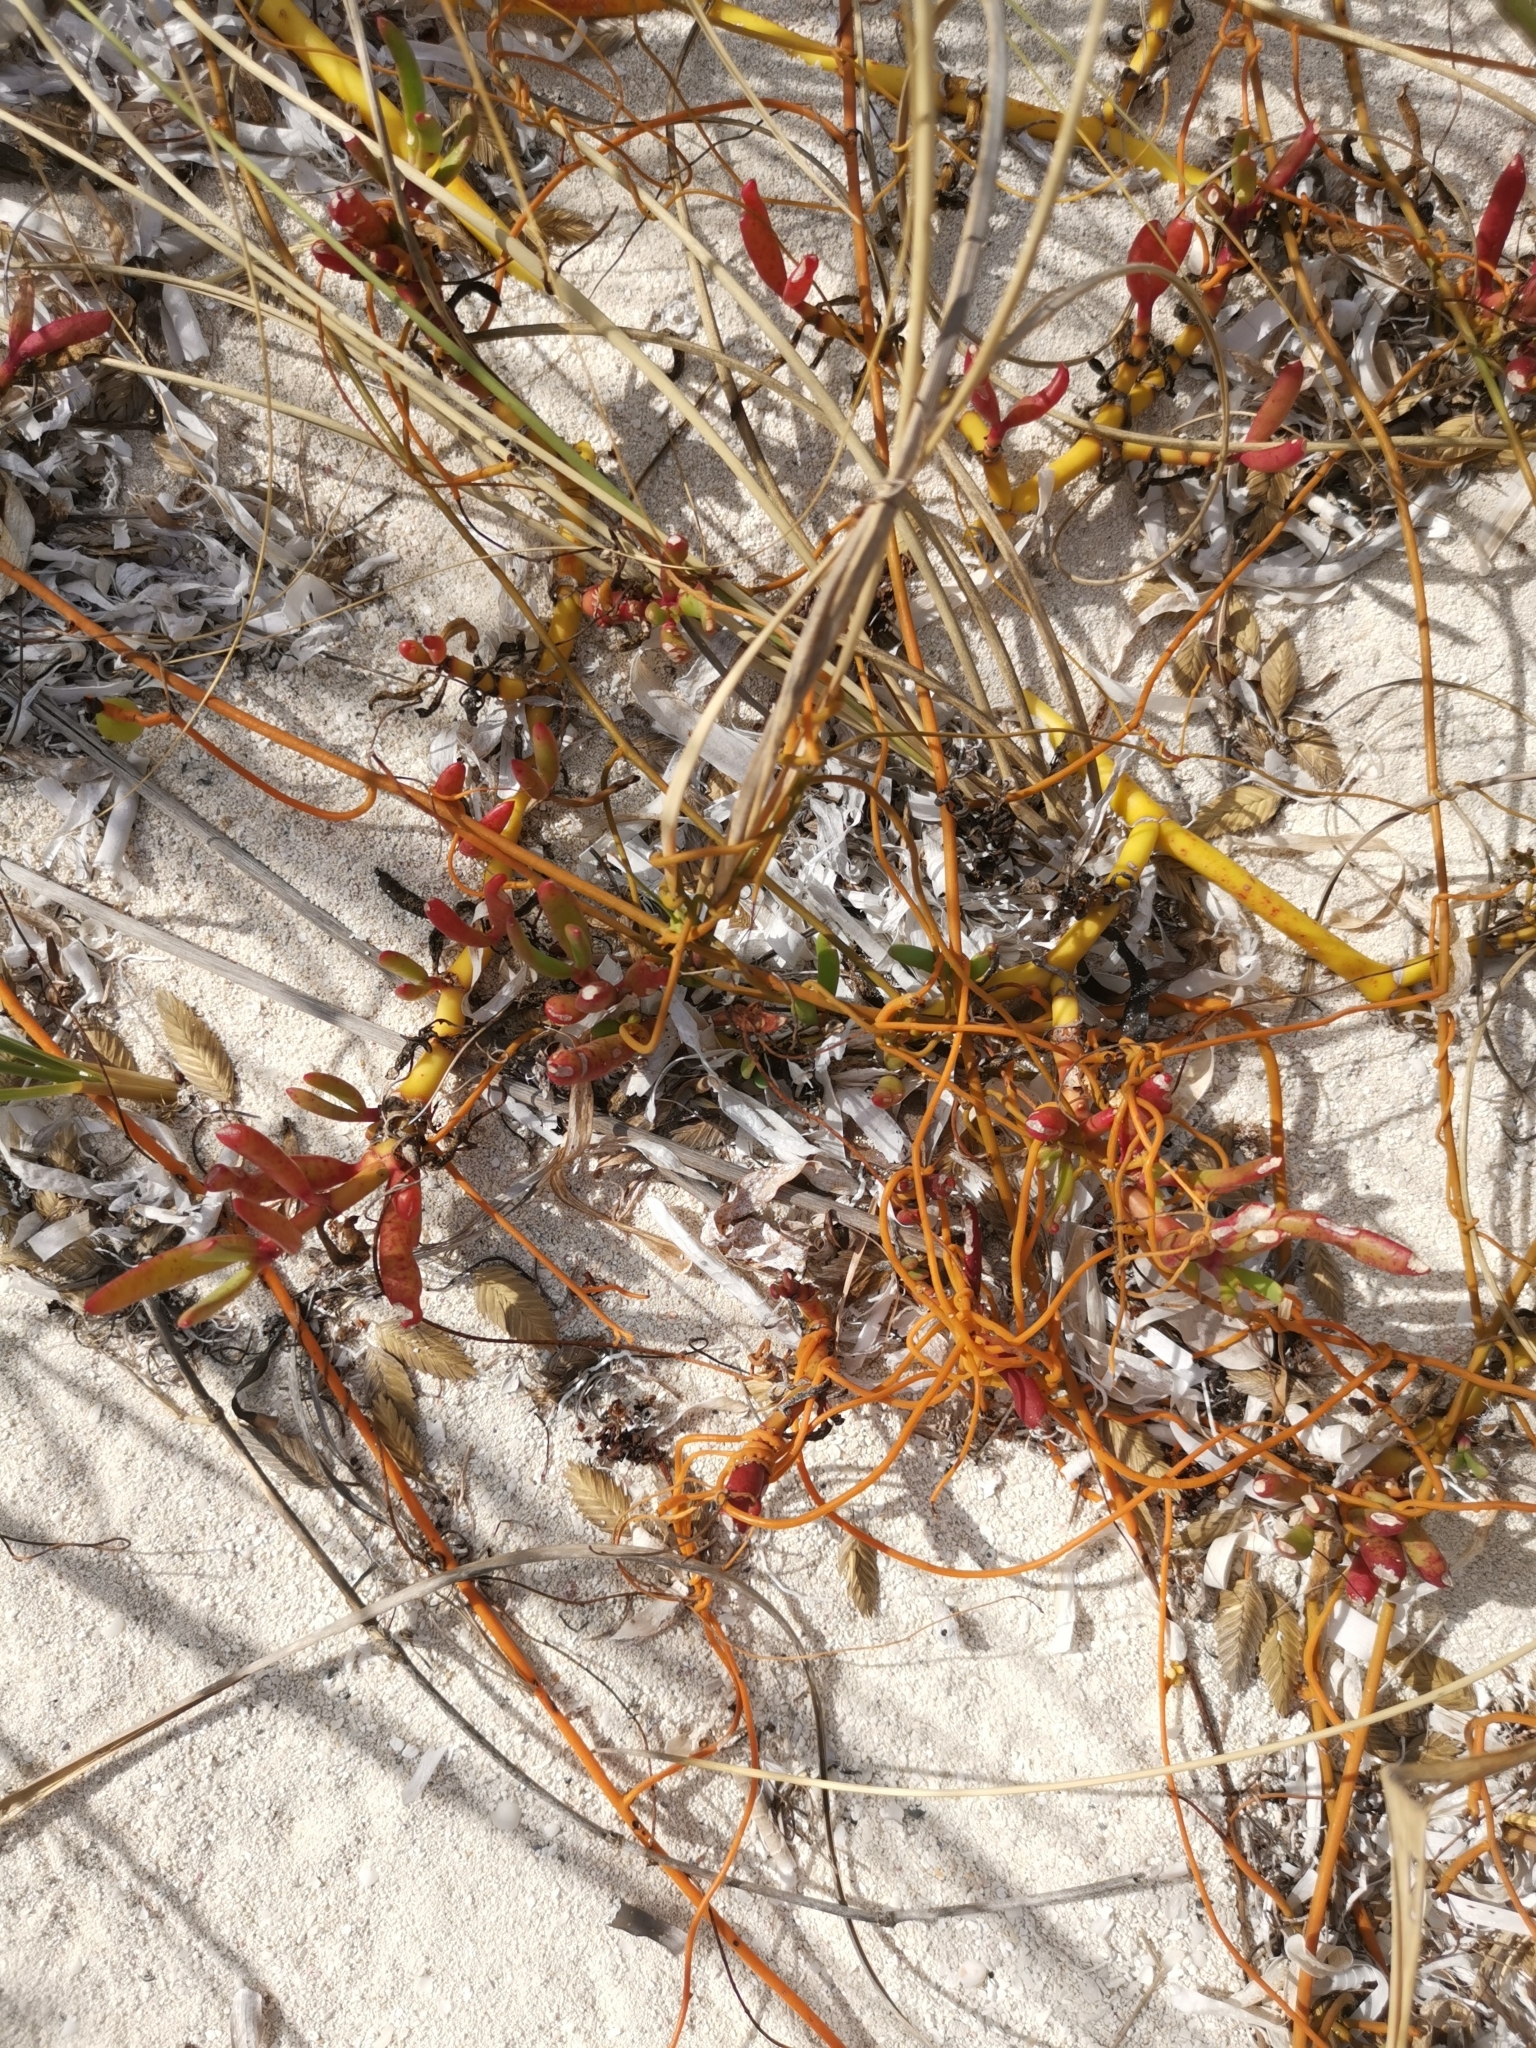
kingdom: Plantae
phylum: Tracheophyta
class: Magnoliopsida
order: Caryophyllales
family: Aizoaceae
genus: Sesuvium
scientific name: Sesuvium portulacastrum
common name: Sea-purslane
